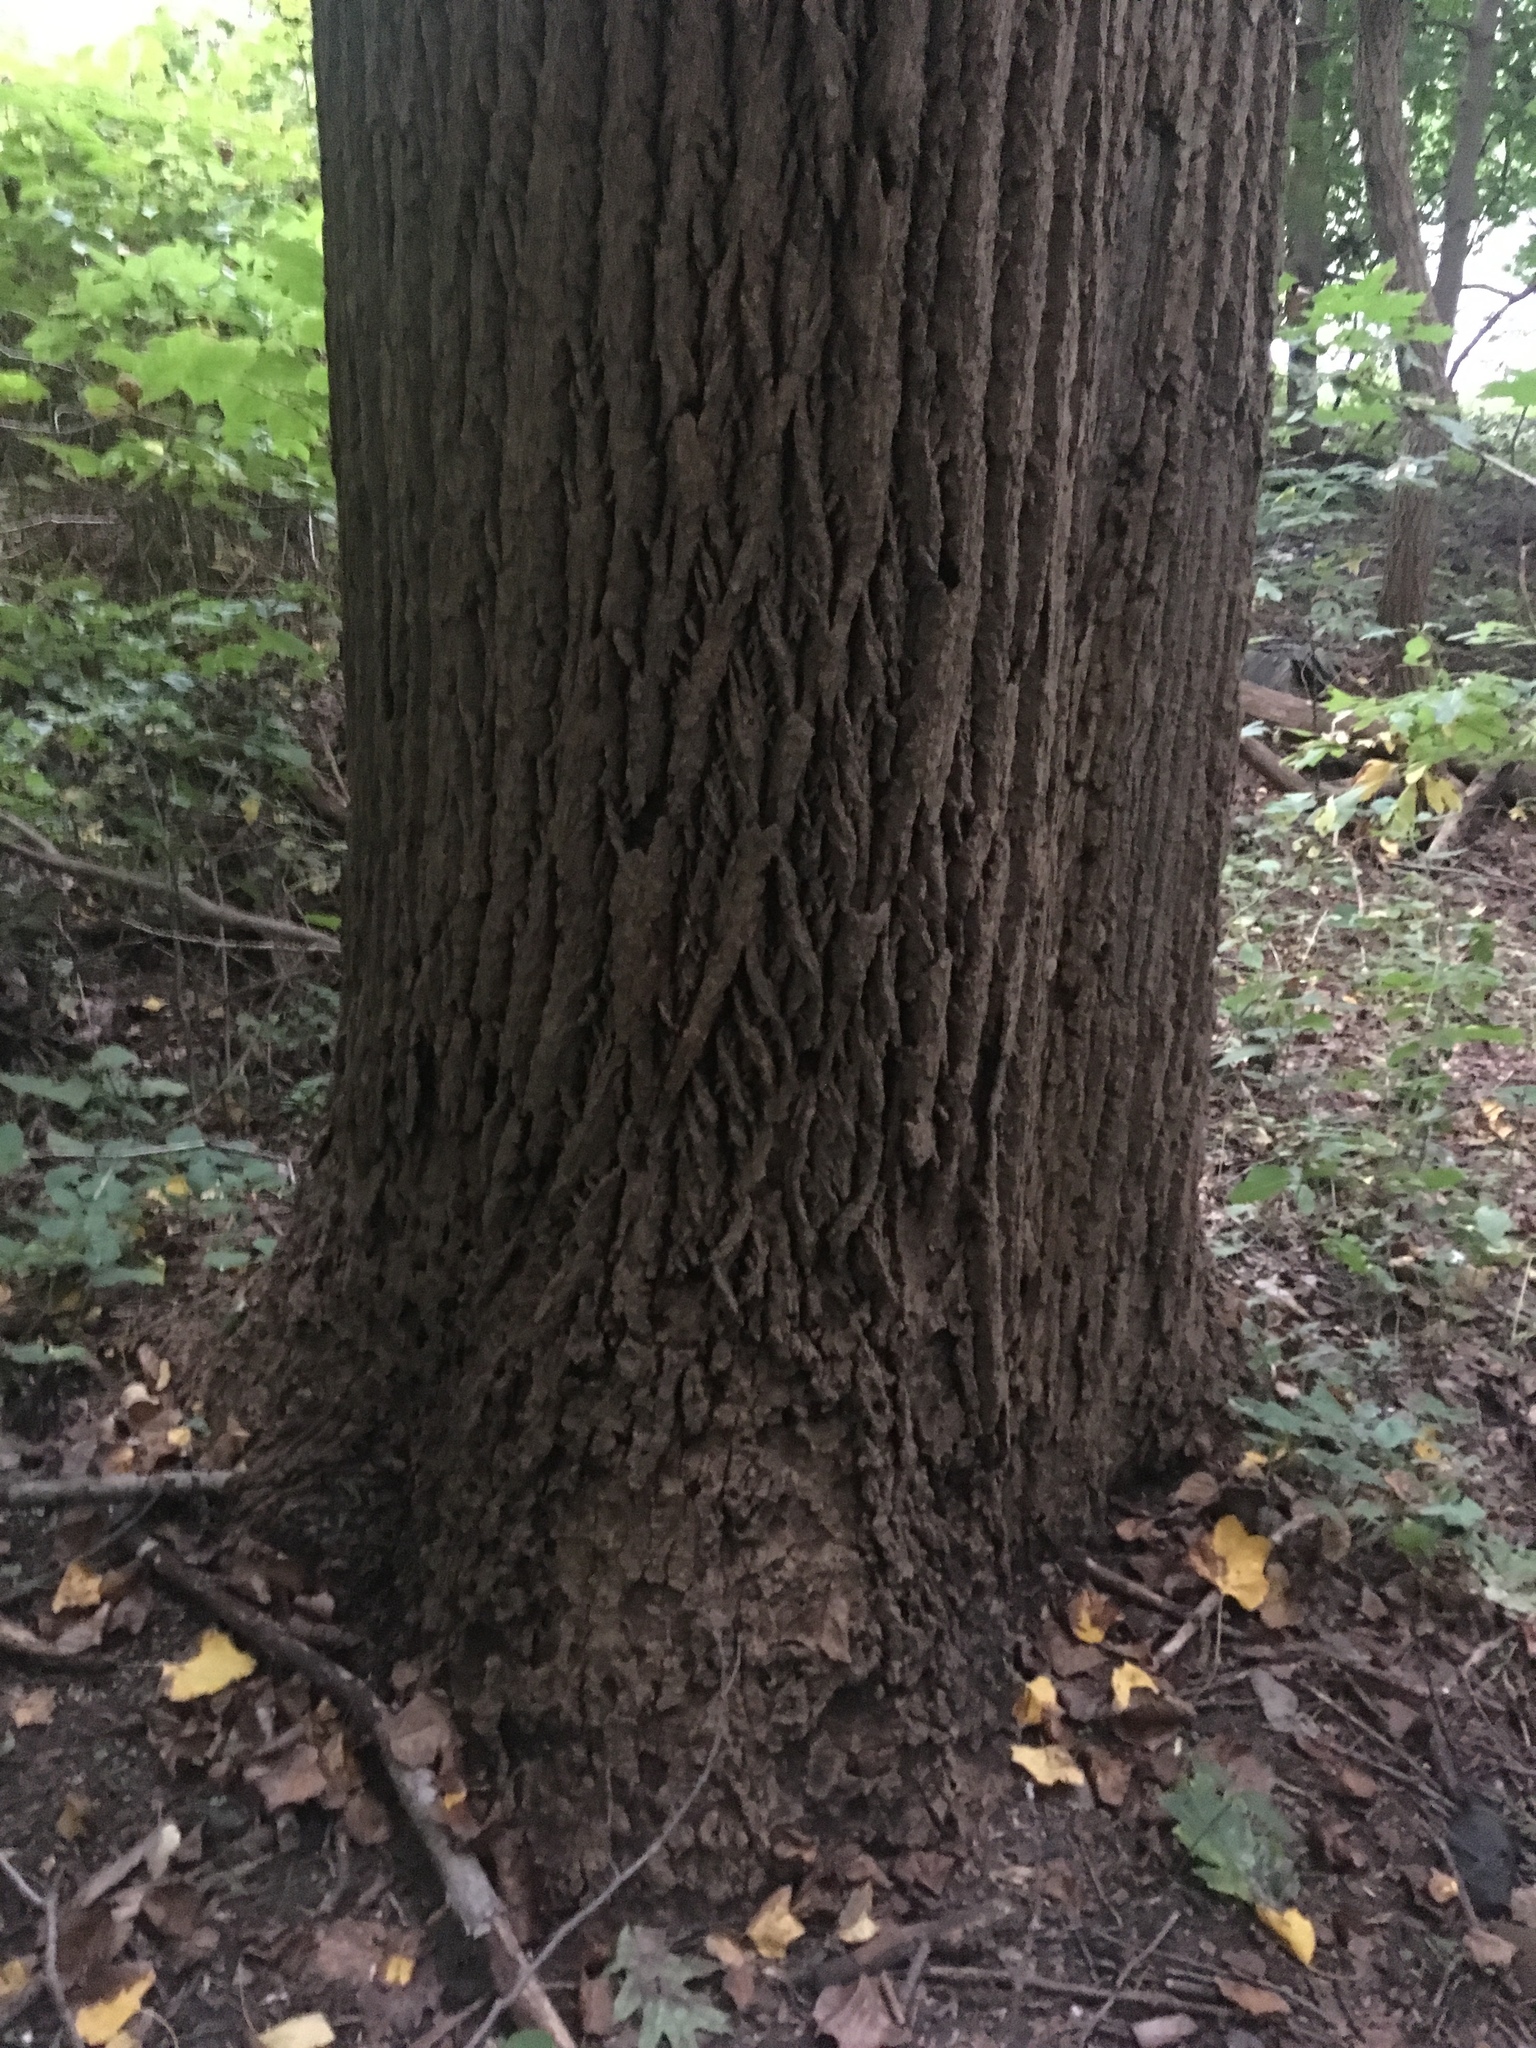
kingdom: Plantae
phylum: Tracheophyta
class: Magnoliopsida
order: Magnoliales
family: Magnoliaceae
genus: Liriodendron
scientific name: Liriodendron tulipifera
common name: Tulip tree
